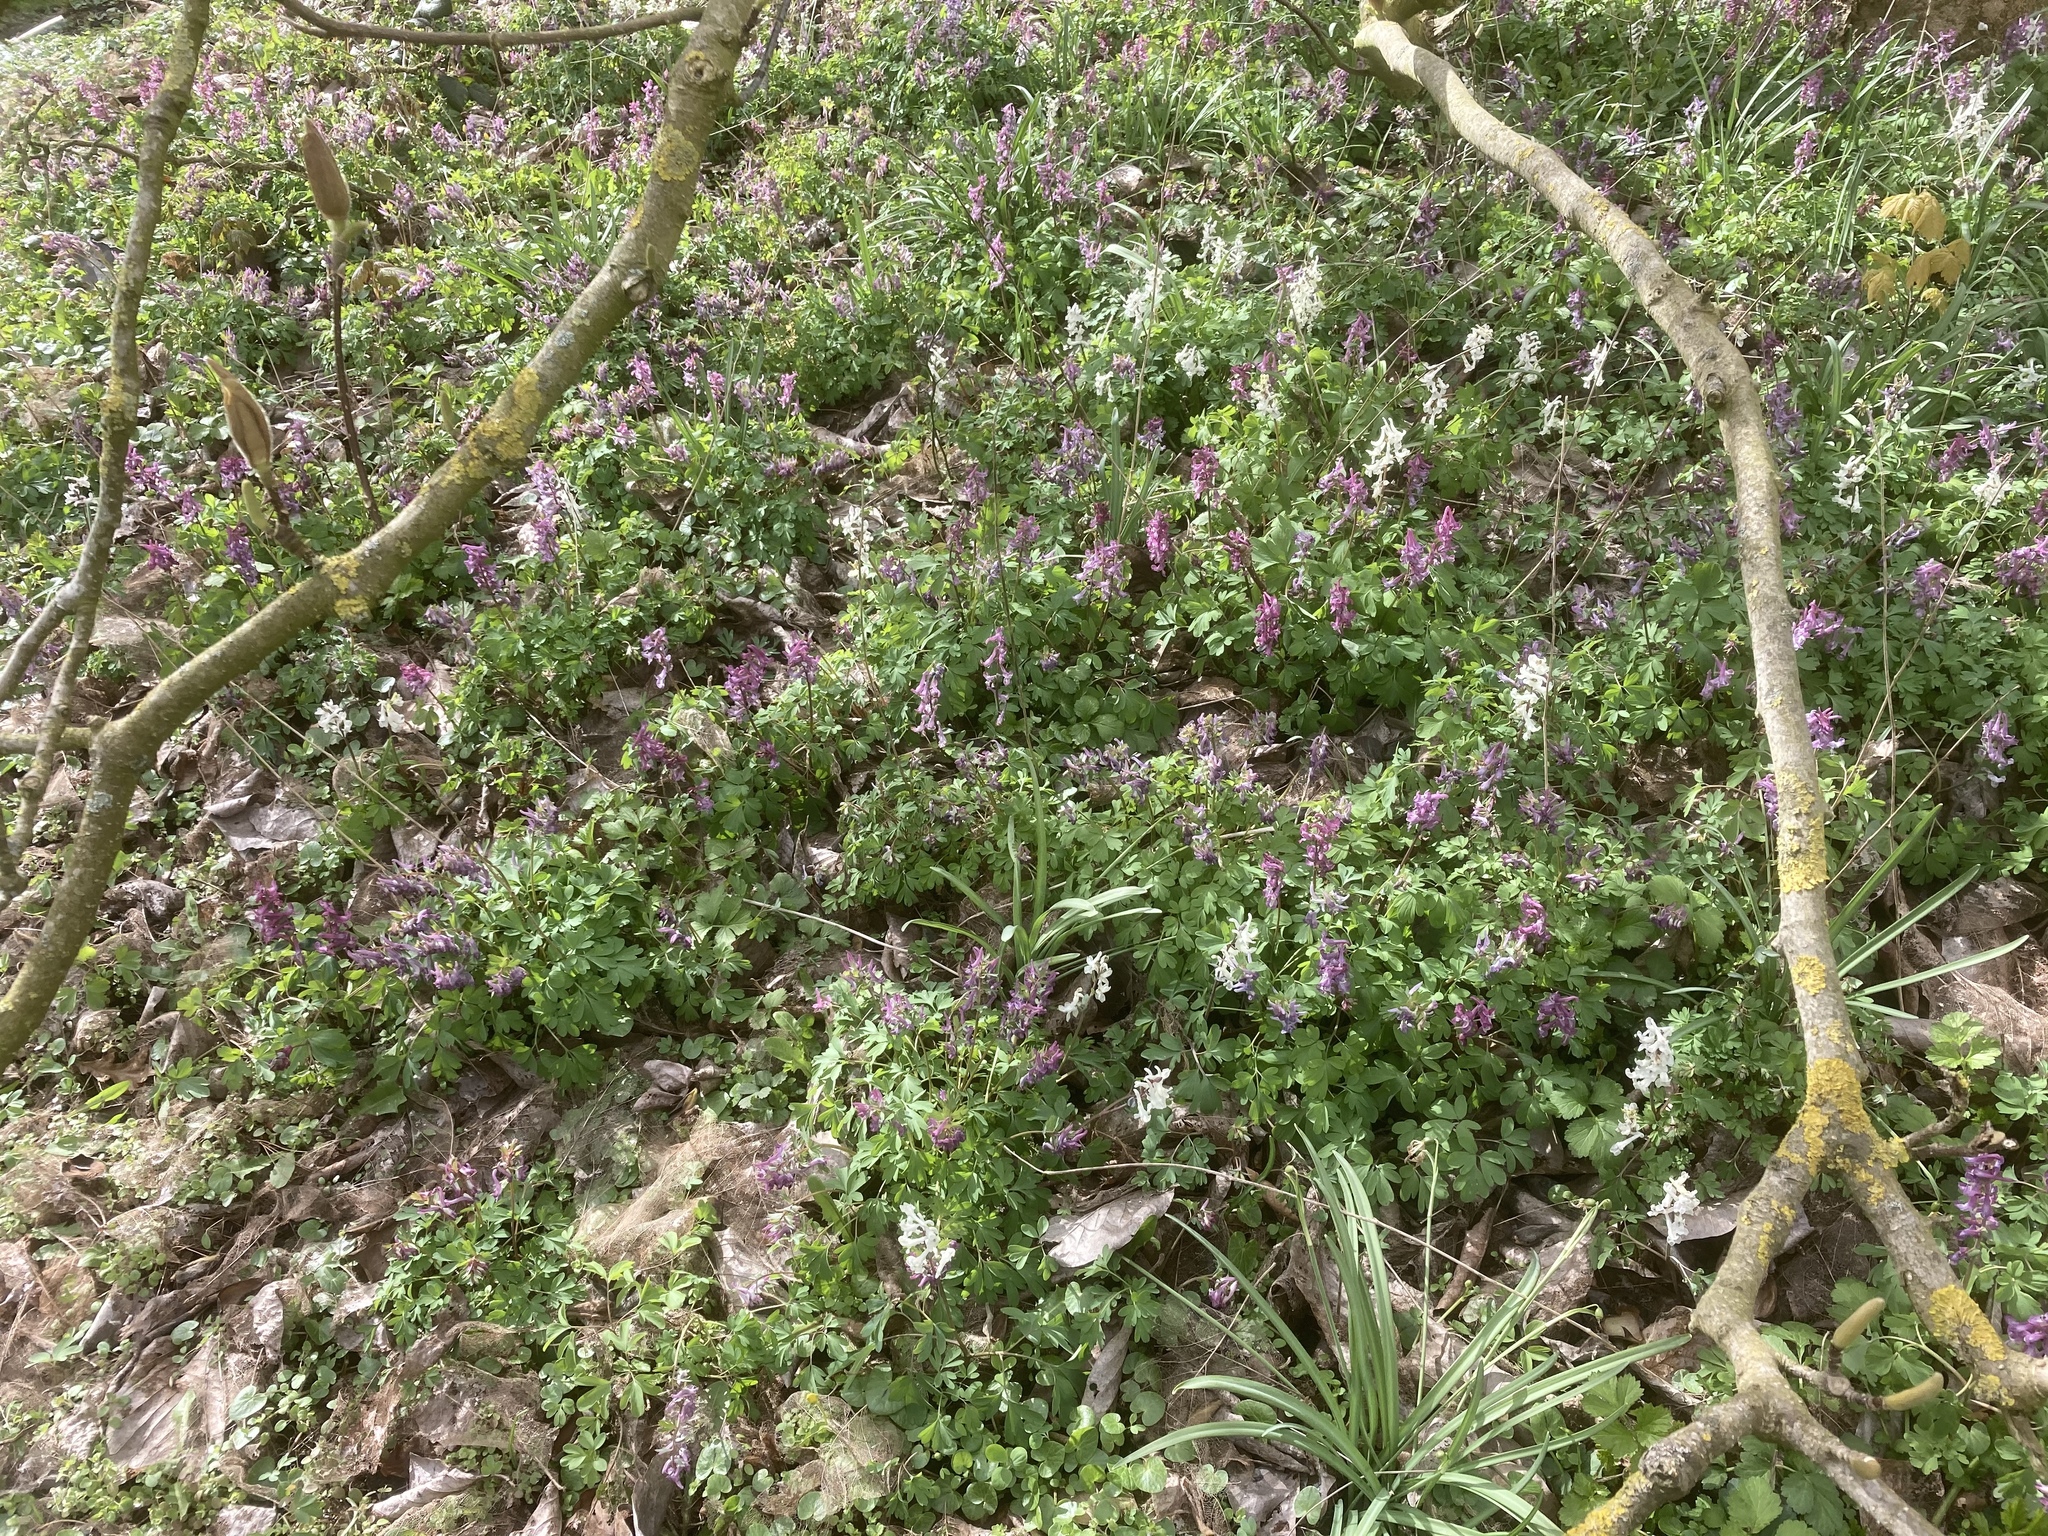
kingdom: Plantae
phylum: Tracheophyta
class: Liliopsida
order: Asparagales
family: Amaryllidaceae
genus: Galanthus
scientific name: Galanthus nivalis
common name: Snowdrop
